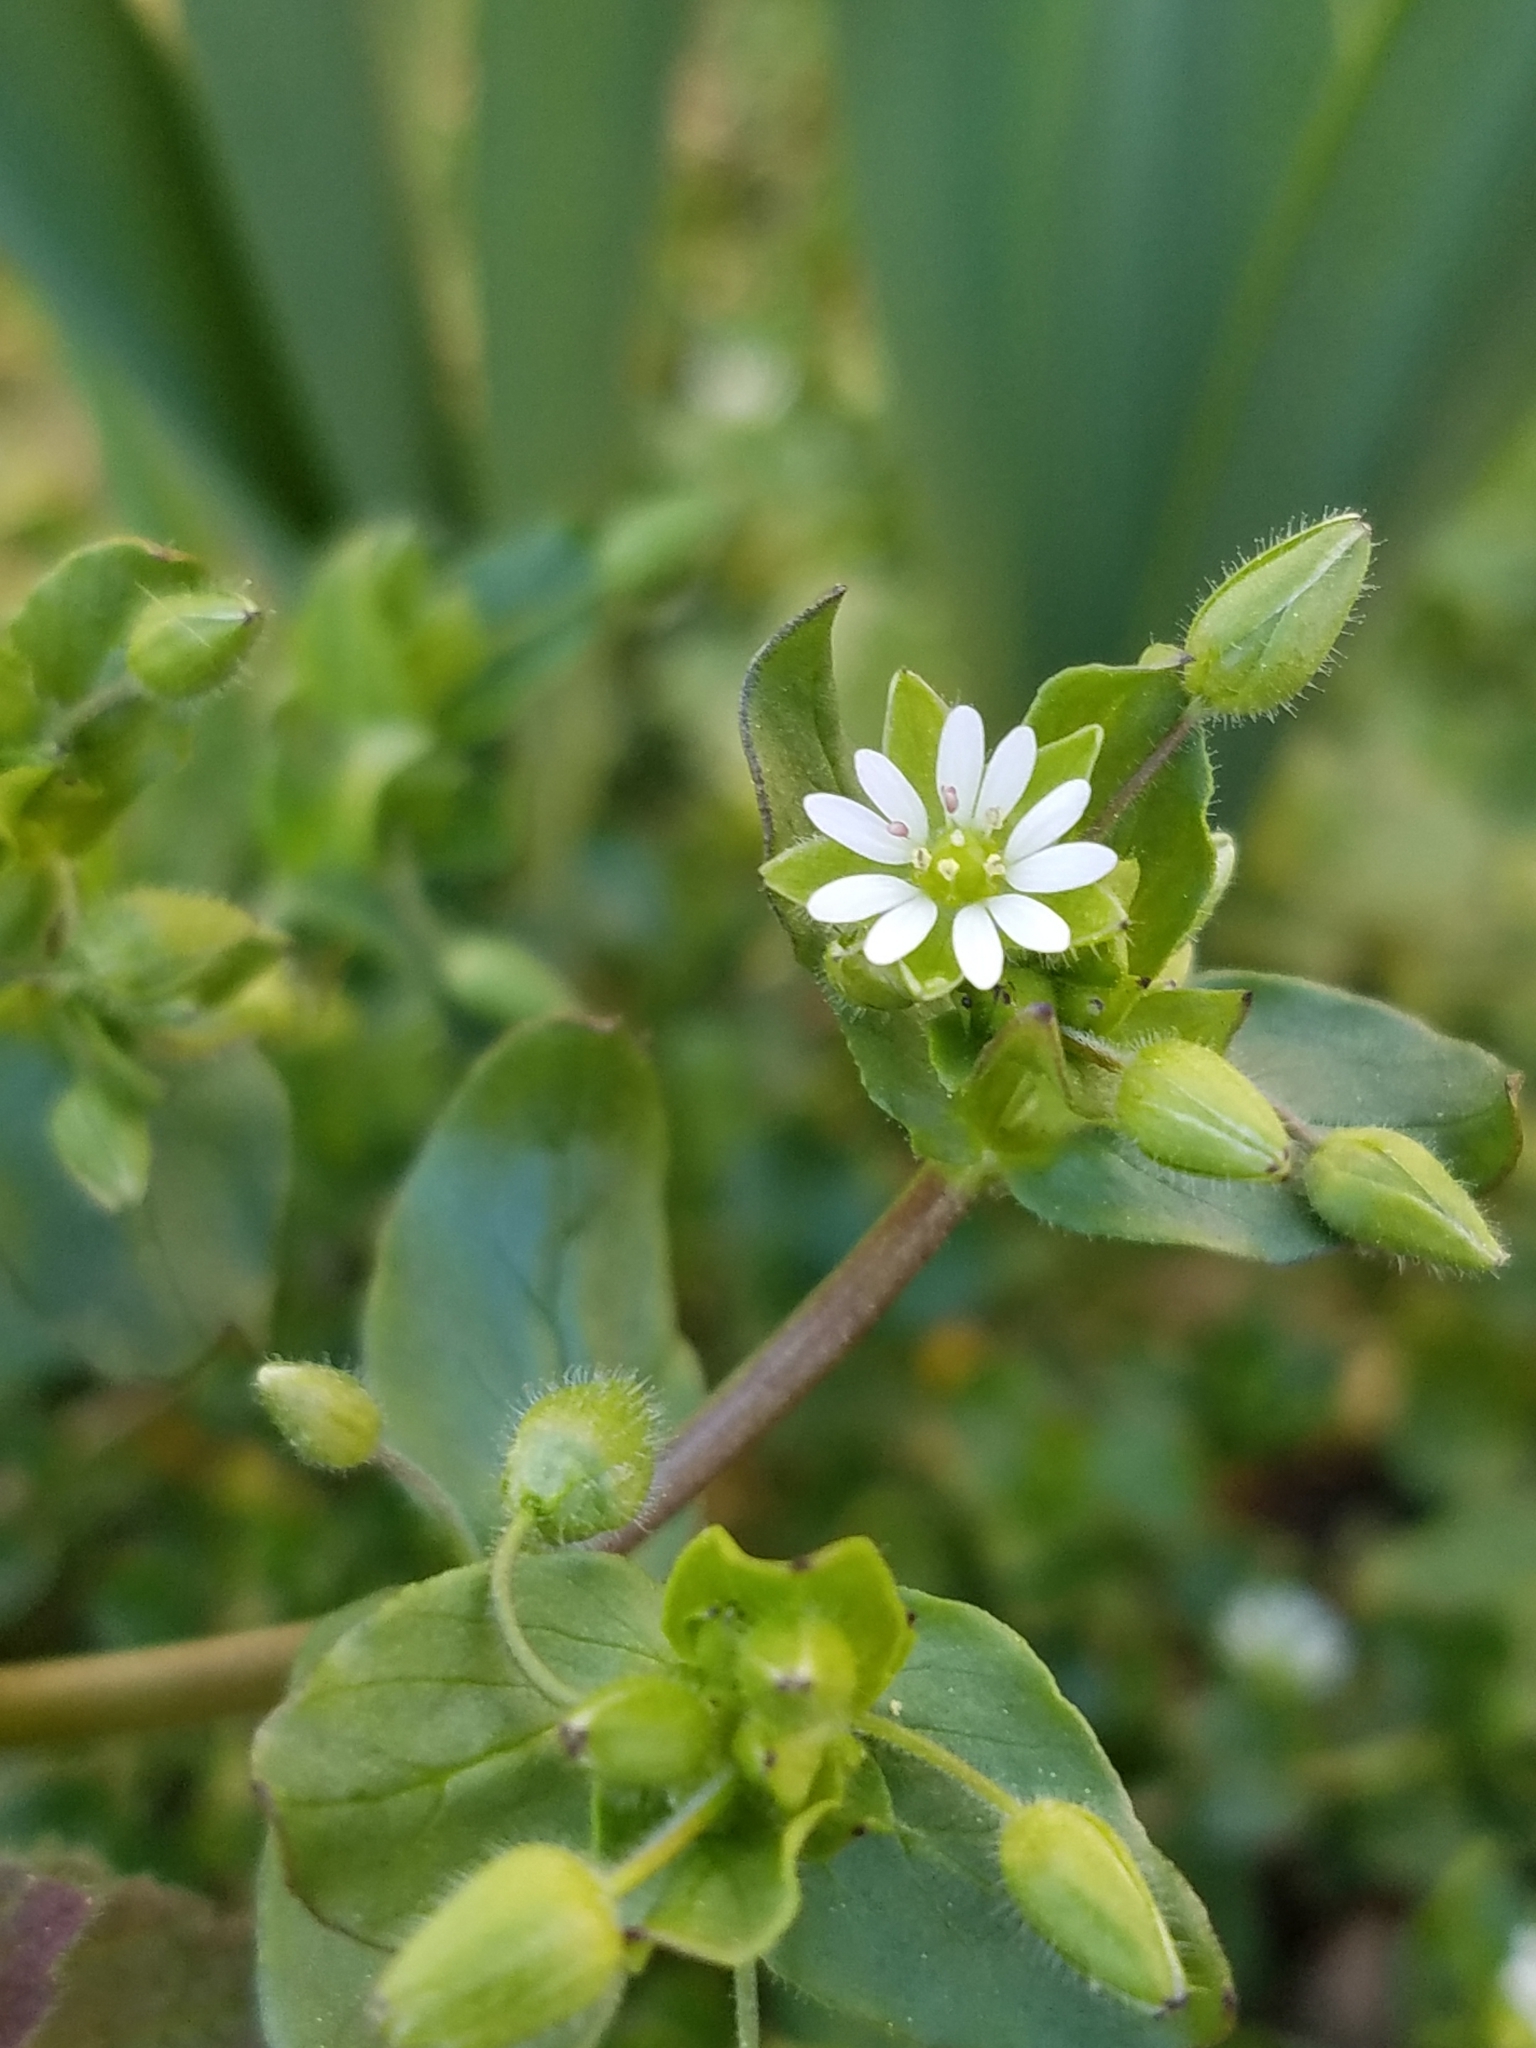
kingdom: Plantae
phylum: Tracheophyta
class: Magnoliopsida
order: Caryophyllales
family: Caryophyllaceae
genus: Stellaria
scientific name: Stellaria media
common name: Common chickweed
